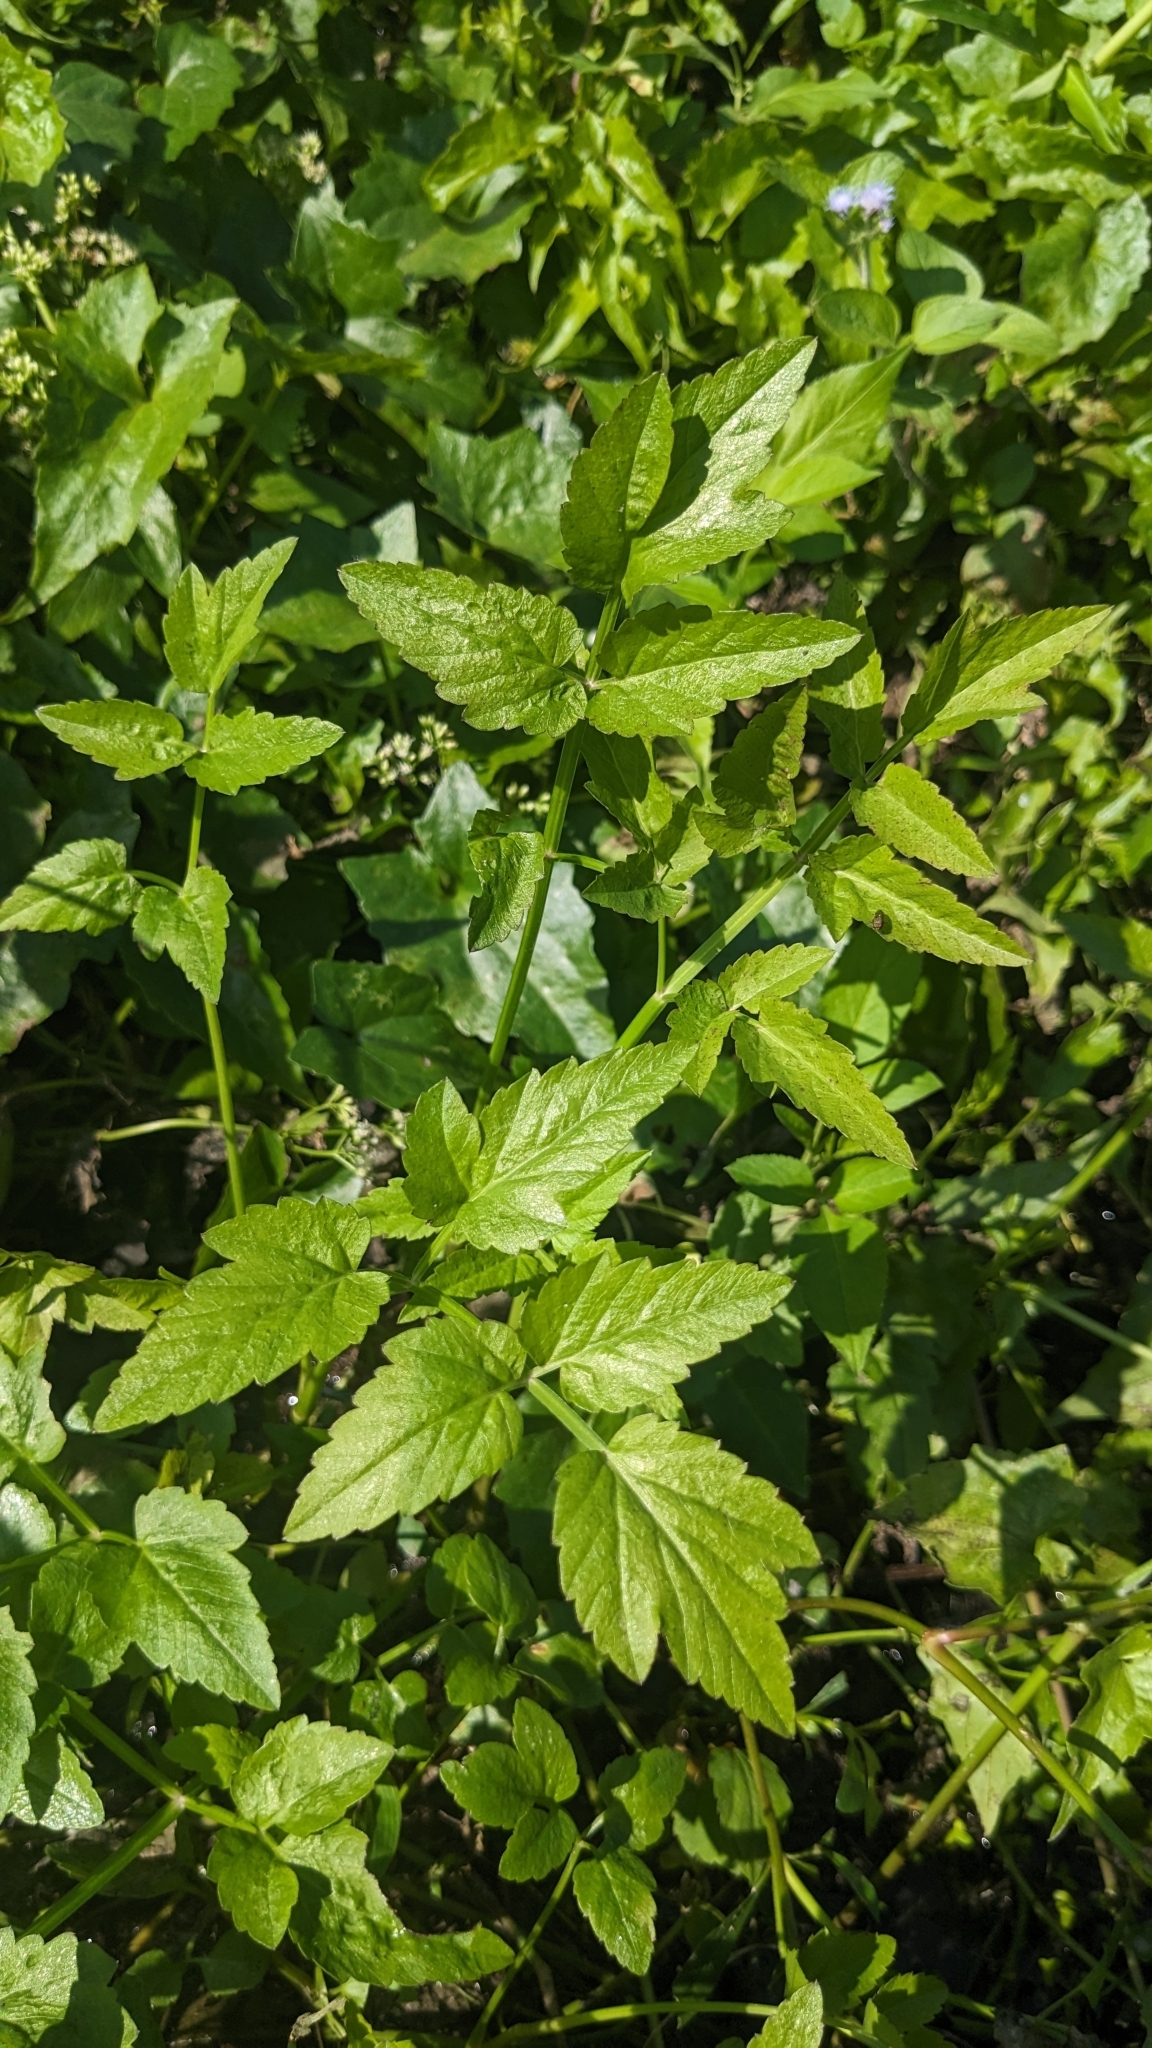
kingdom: Plantae
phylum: Tracheophyta
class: Magnoliopsida
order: Apiales
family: Apiaceae
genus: Oenanthe
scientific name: Oenanthe javanica
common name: Java water-dropwort
